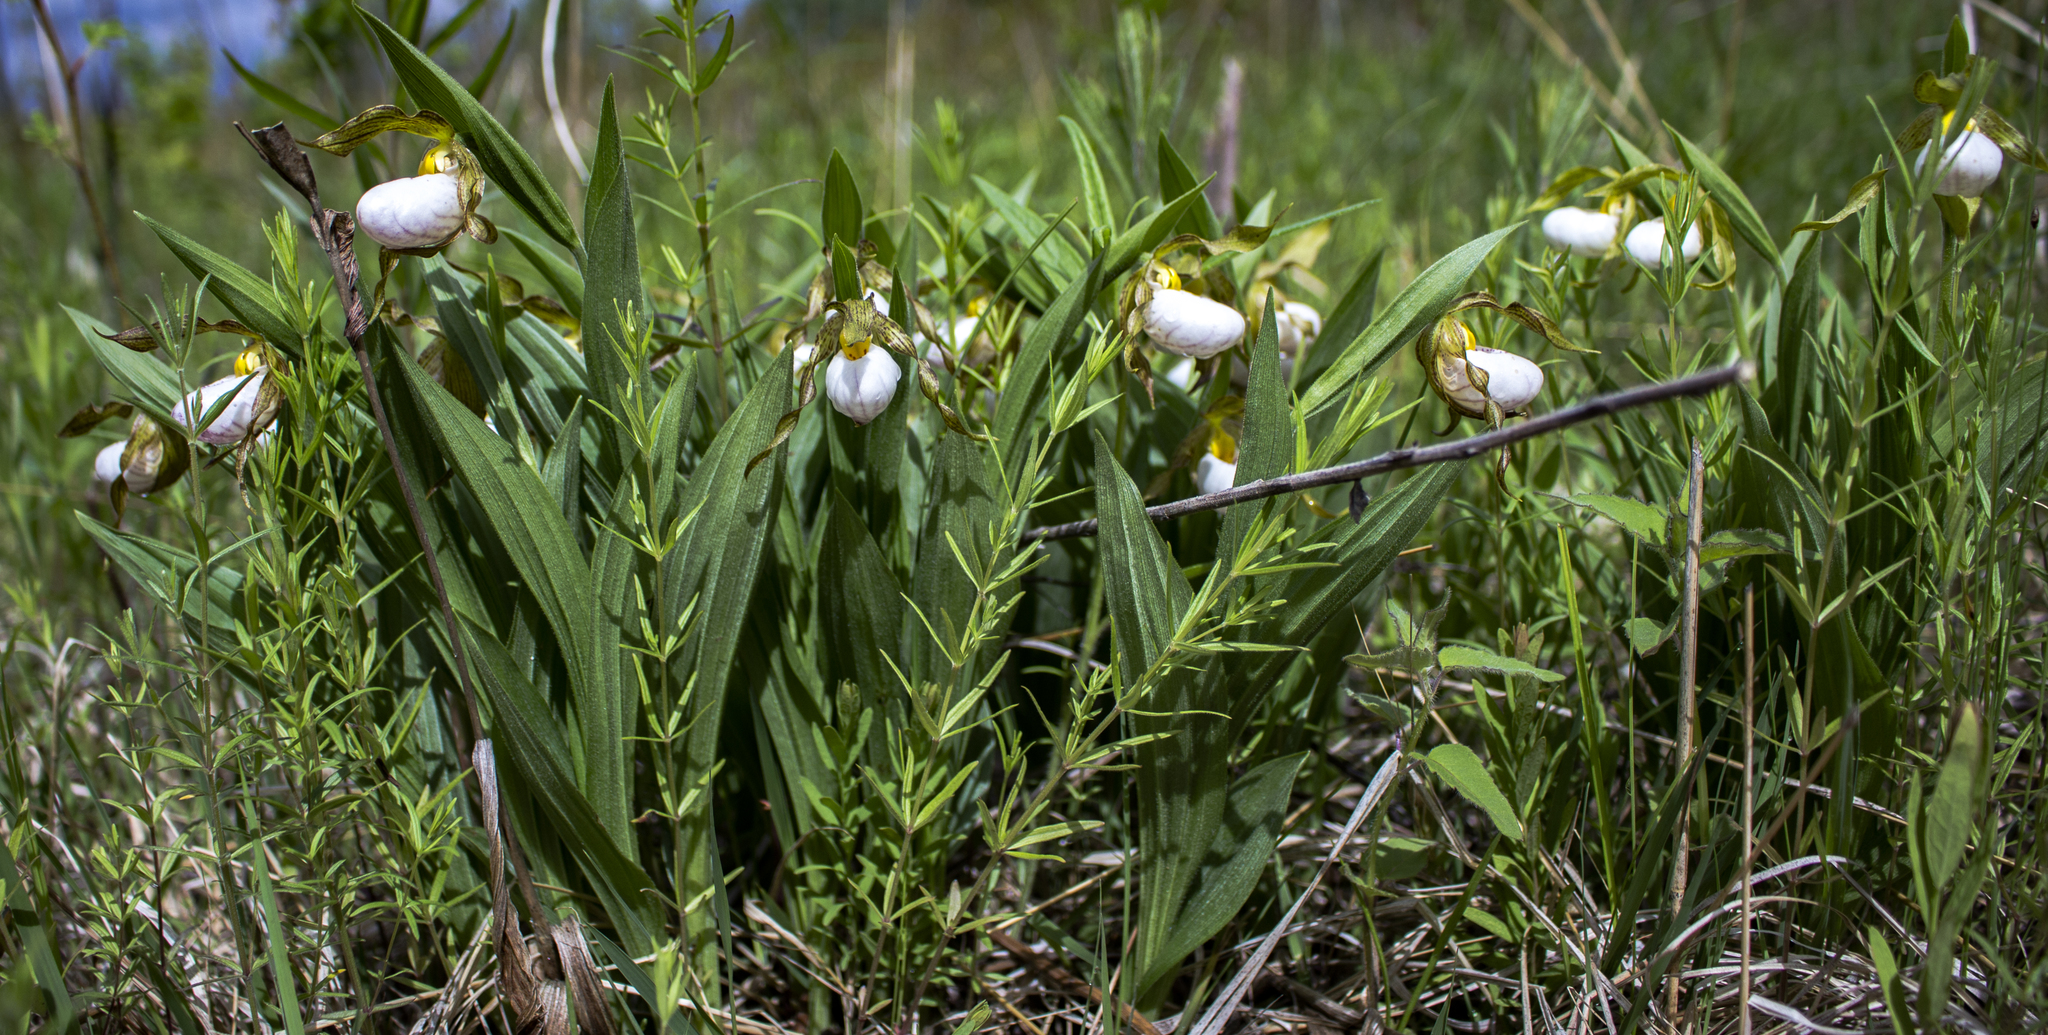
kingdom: Plantae
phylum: Tracheophyta
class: Liliopsida
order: Asparagales
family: Orchidaceae
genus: Cypripedium
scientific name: Cypripedium candidum
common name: White lady's-slipper
